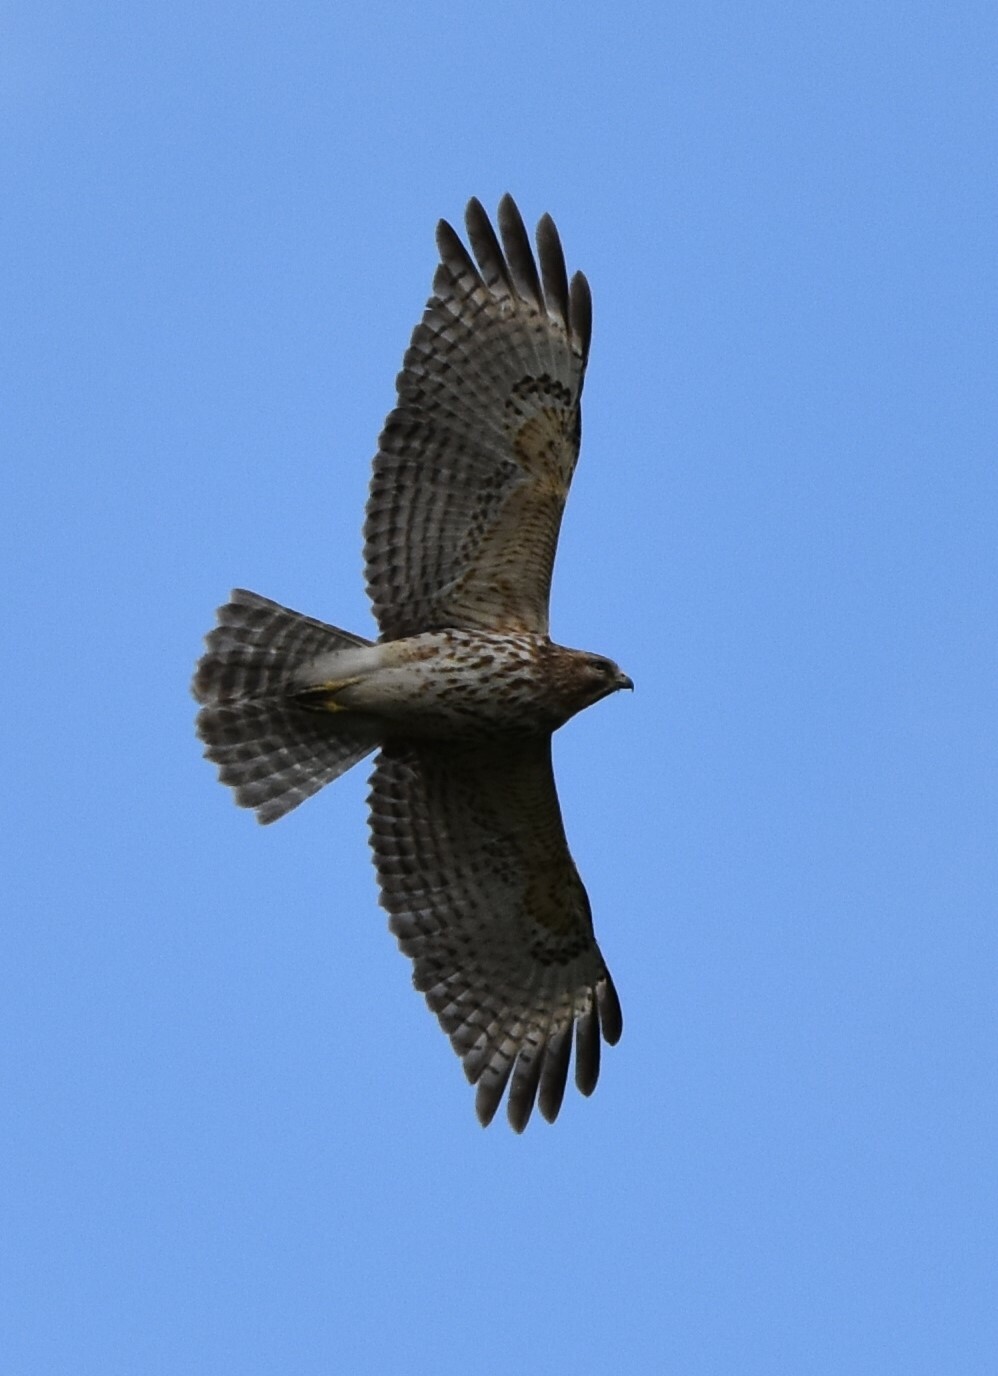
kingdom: Animalia
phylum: Chordata
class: Aves
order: Accipitriformes
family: Accipitridae
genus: Buteo
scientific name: Buteo lineatus
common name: Red-shouldered hawk
